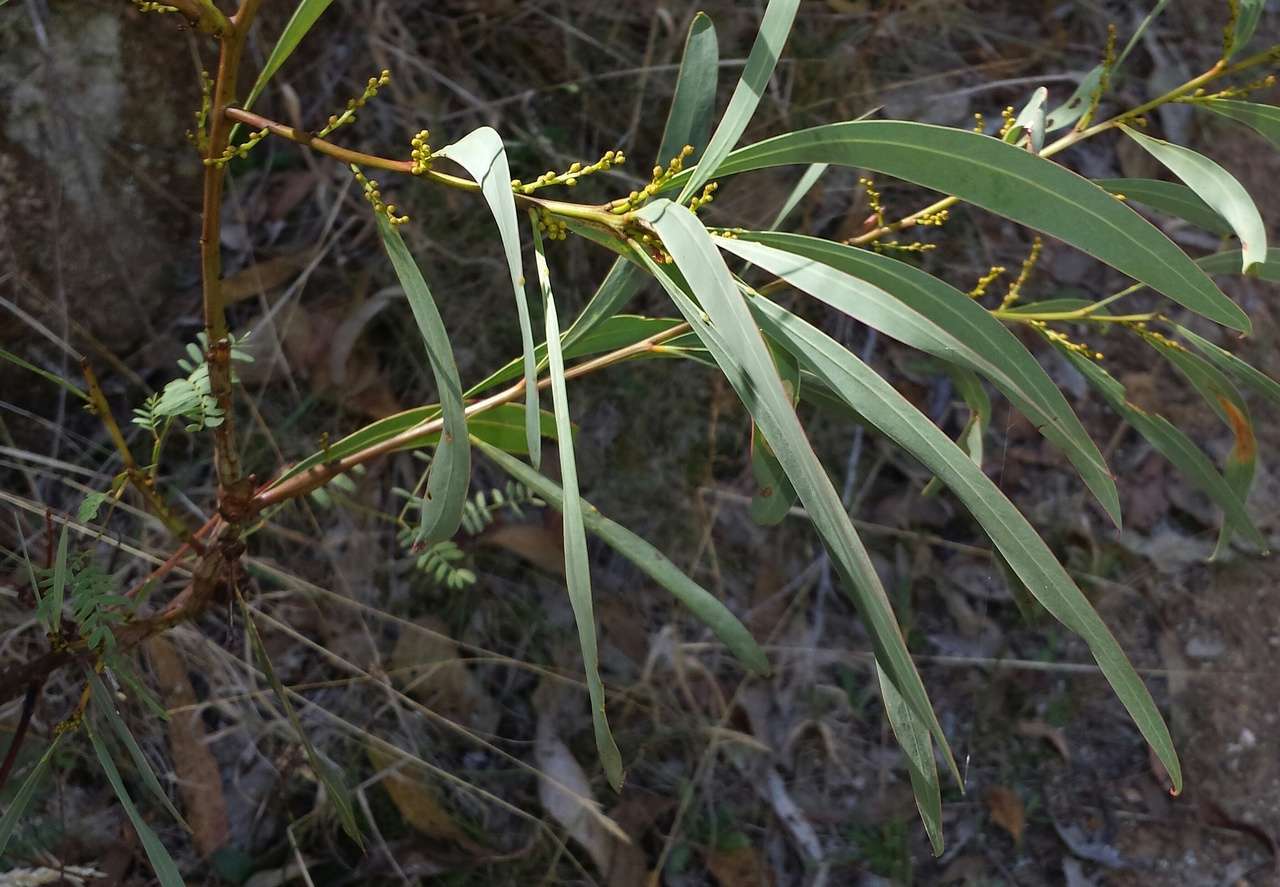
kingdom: Plantae
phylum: Tracheophyta
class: Magnoliopsida
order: Fabales
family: Fabaceae
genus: Acacia
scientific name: Acacia rubida
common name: Red leaf wattle
